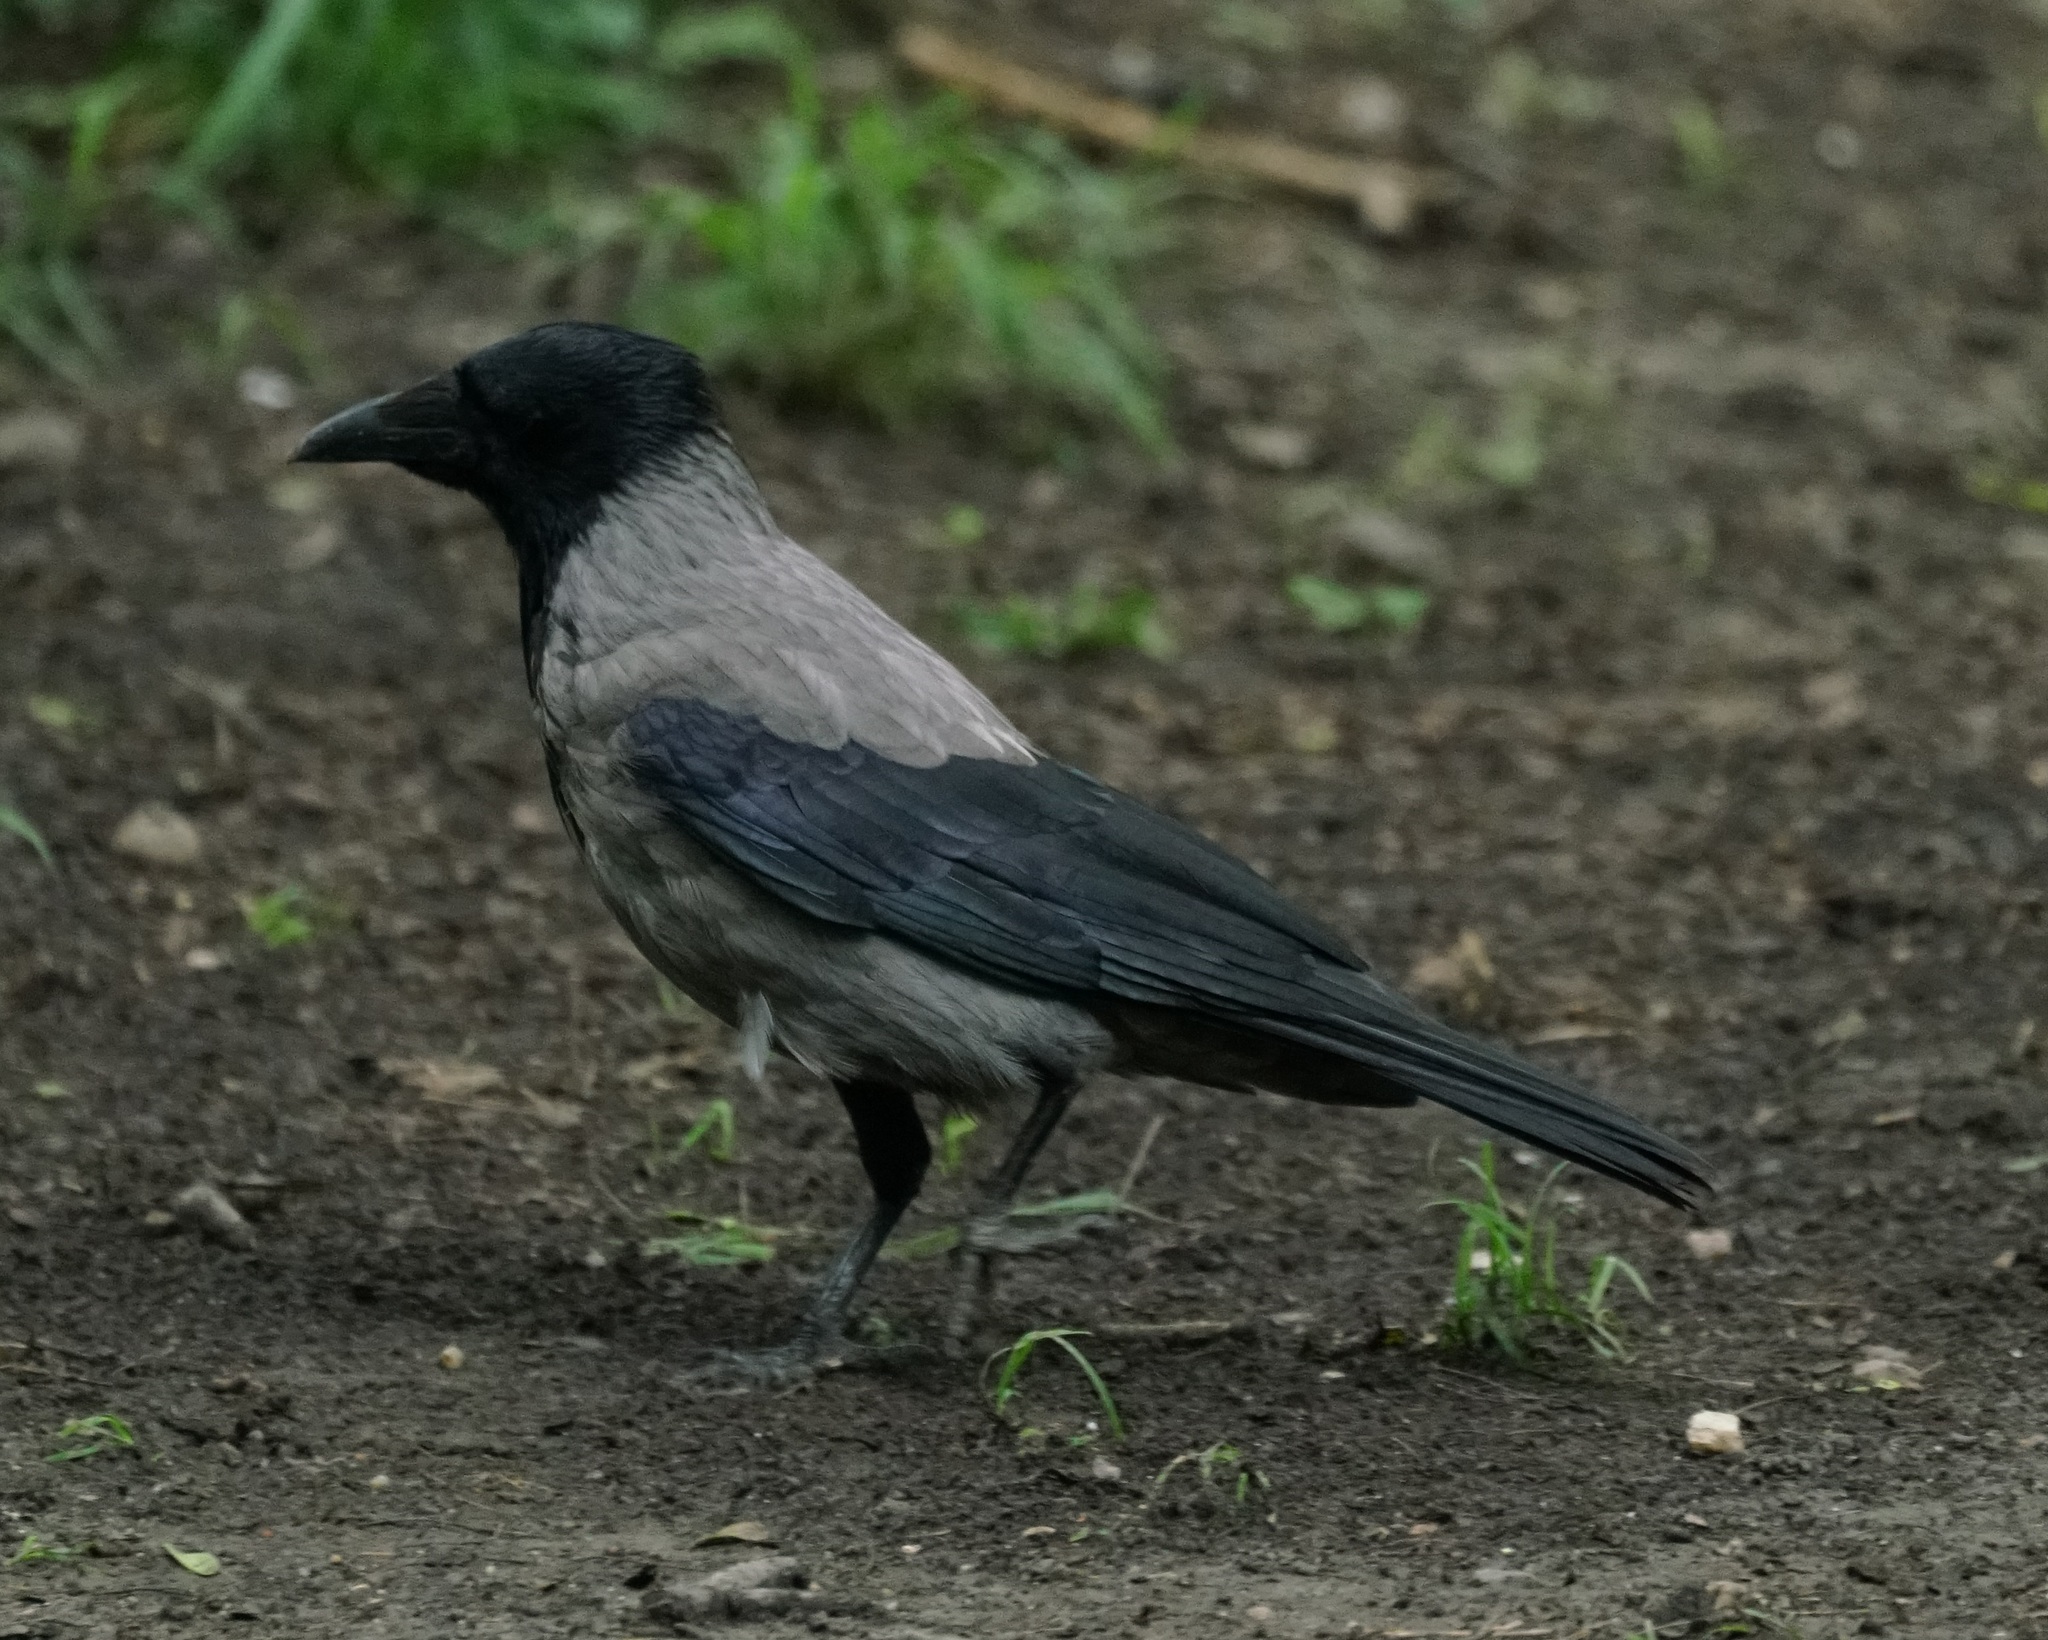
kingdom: Animalia
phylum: Chordata
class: Aves
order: Passeriformes
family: Corvidae
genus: Corvus
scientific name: Corvus cornix
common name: Hooded crow
